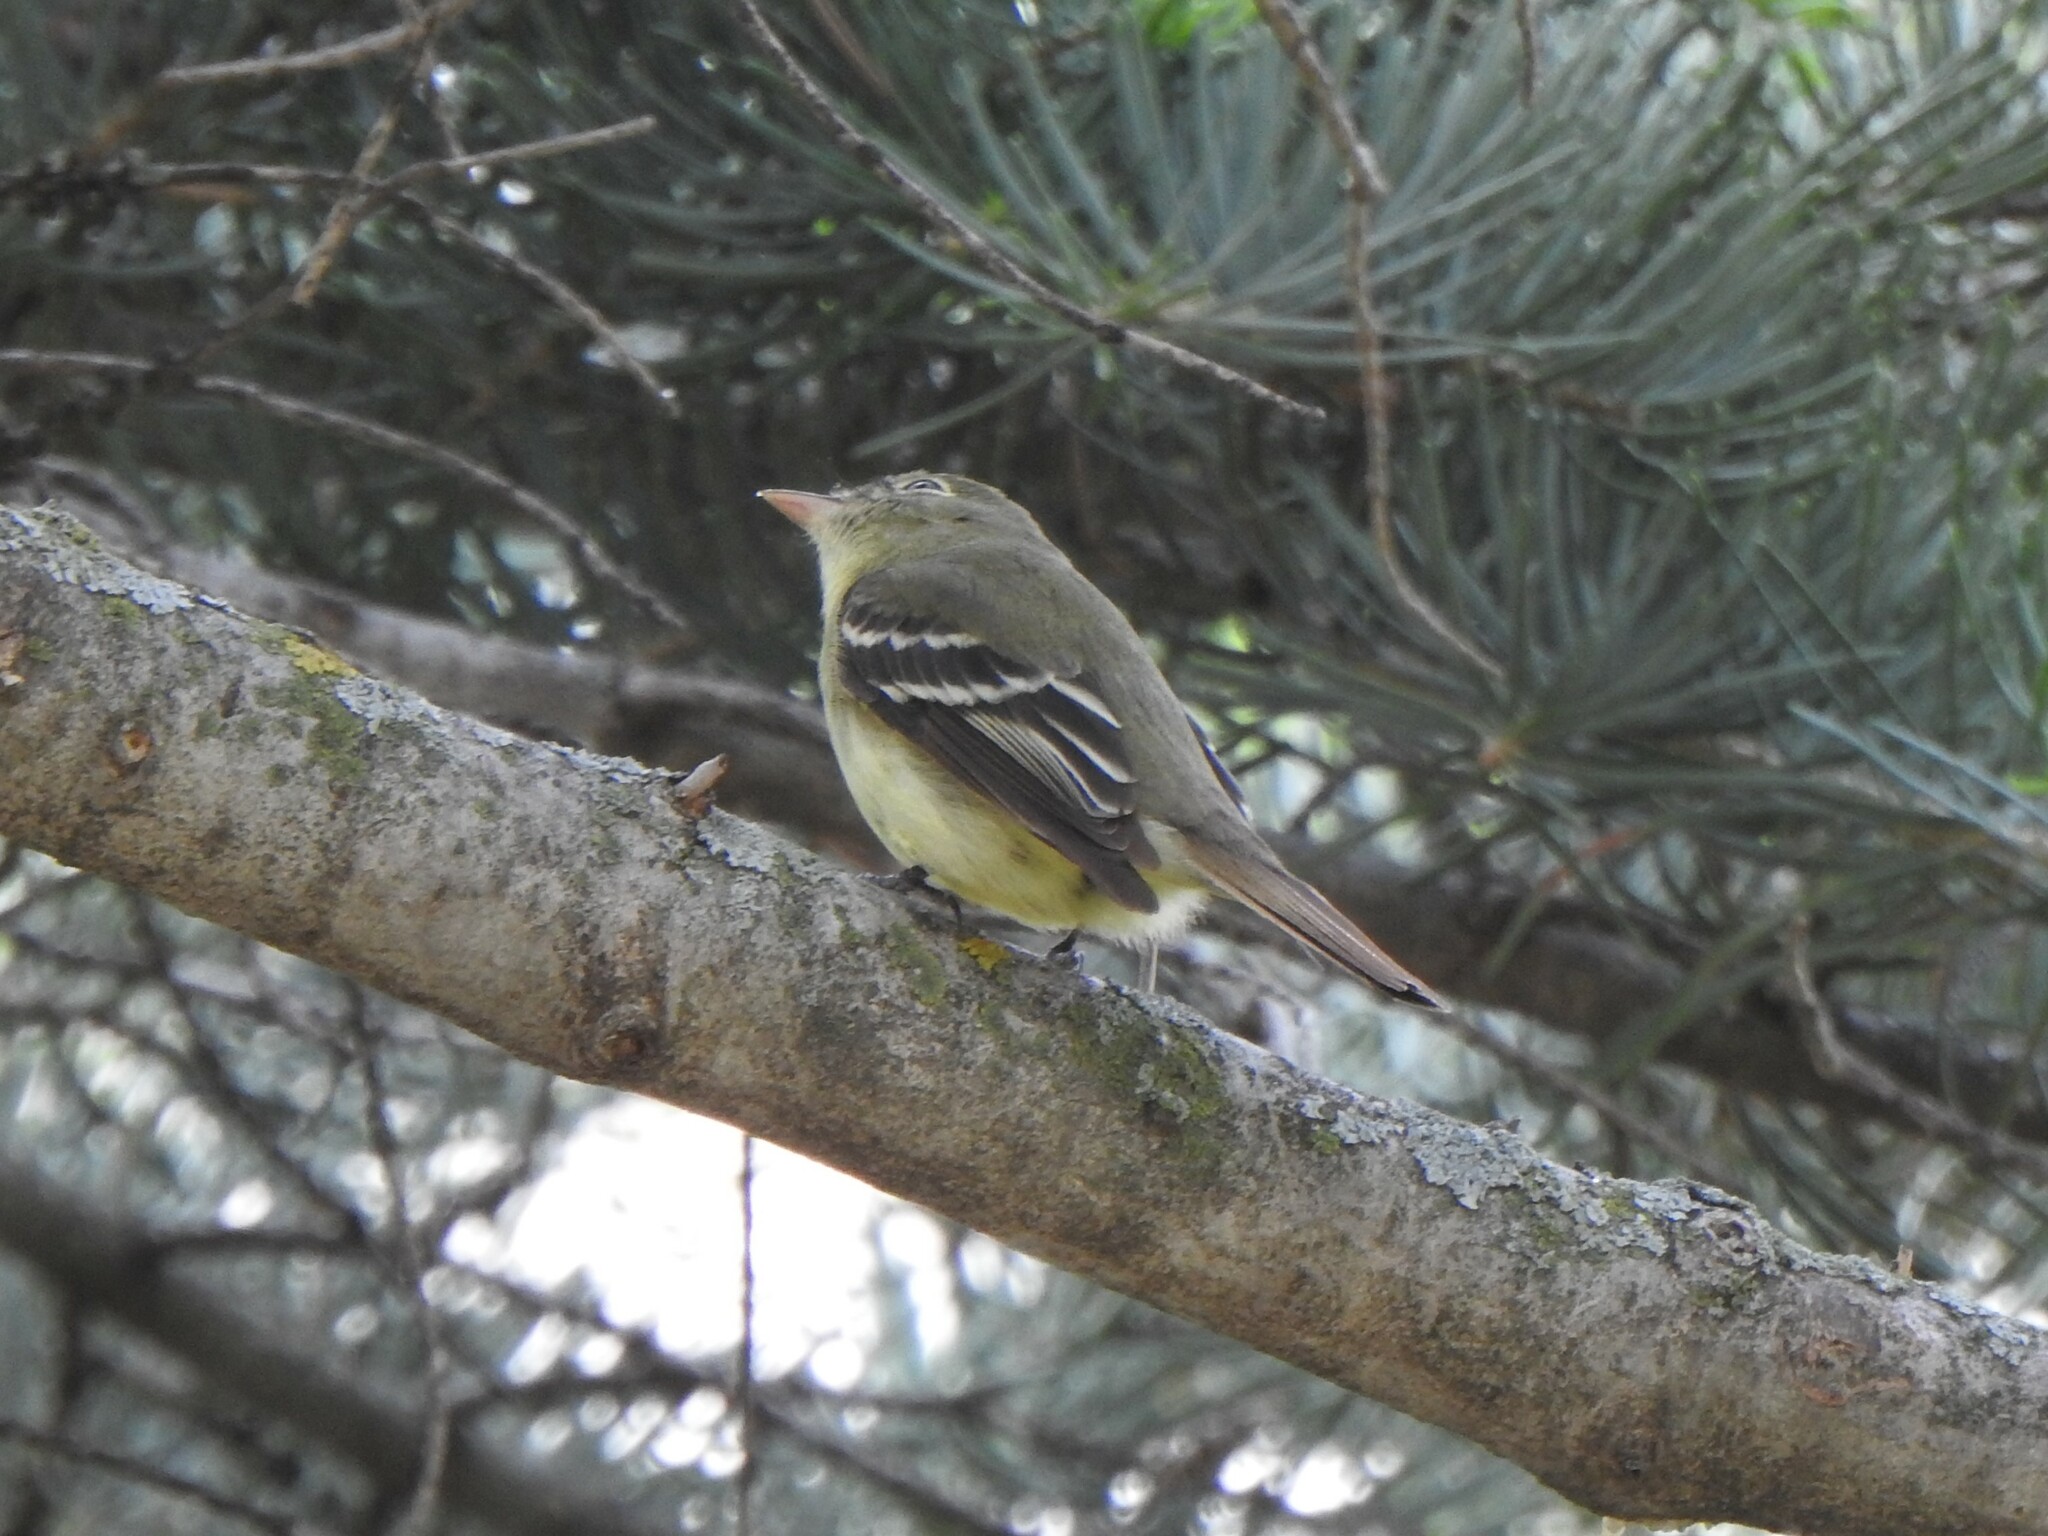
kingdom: Animalia
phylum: Chordata
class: Aves
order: Passeriformes
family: Tyrannidae
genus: Empidonax
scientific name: Empidonax flaviventris
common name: Yellow-bellied flycatcher
